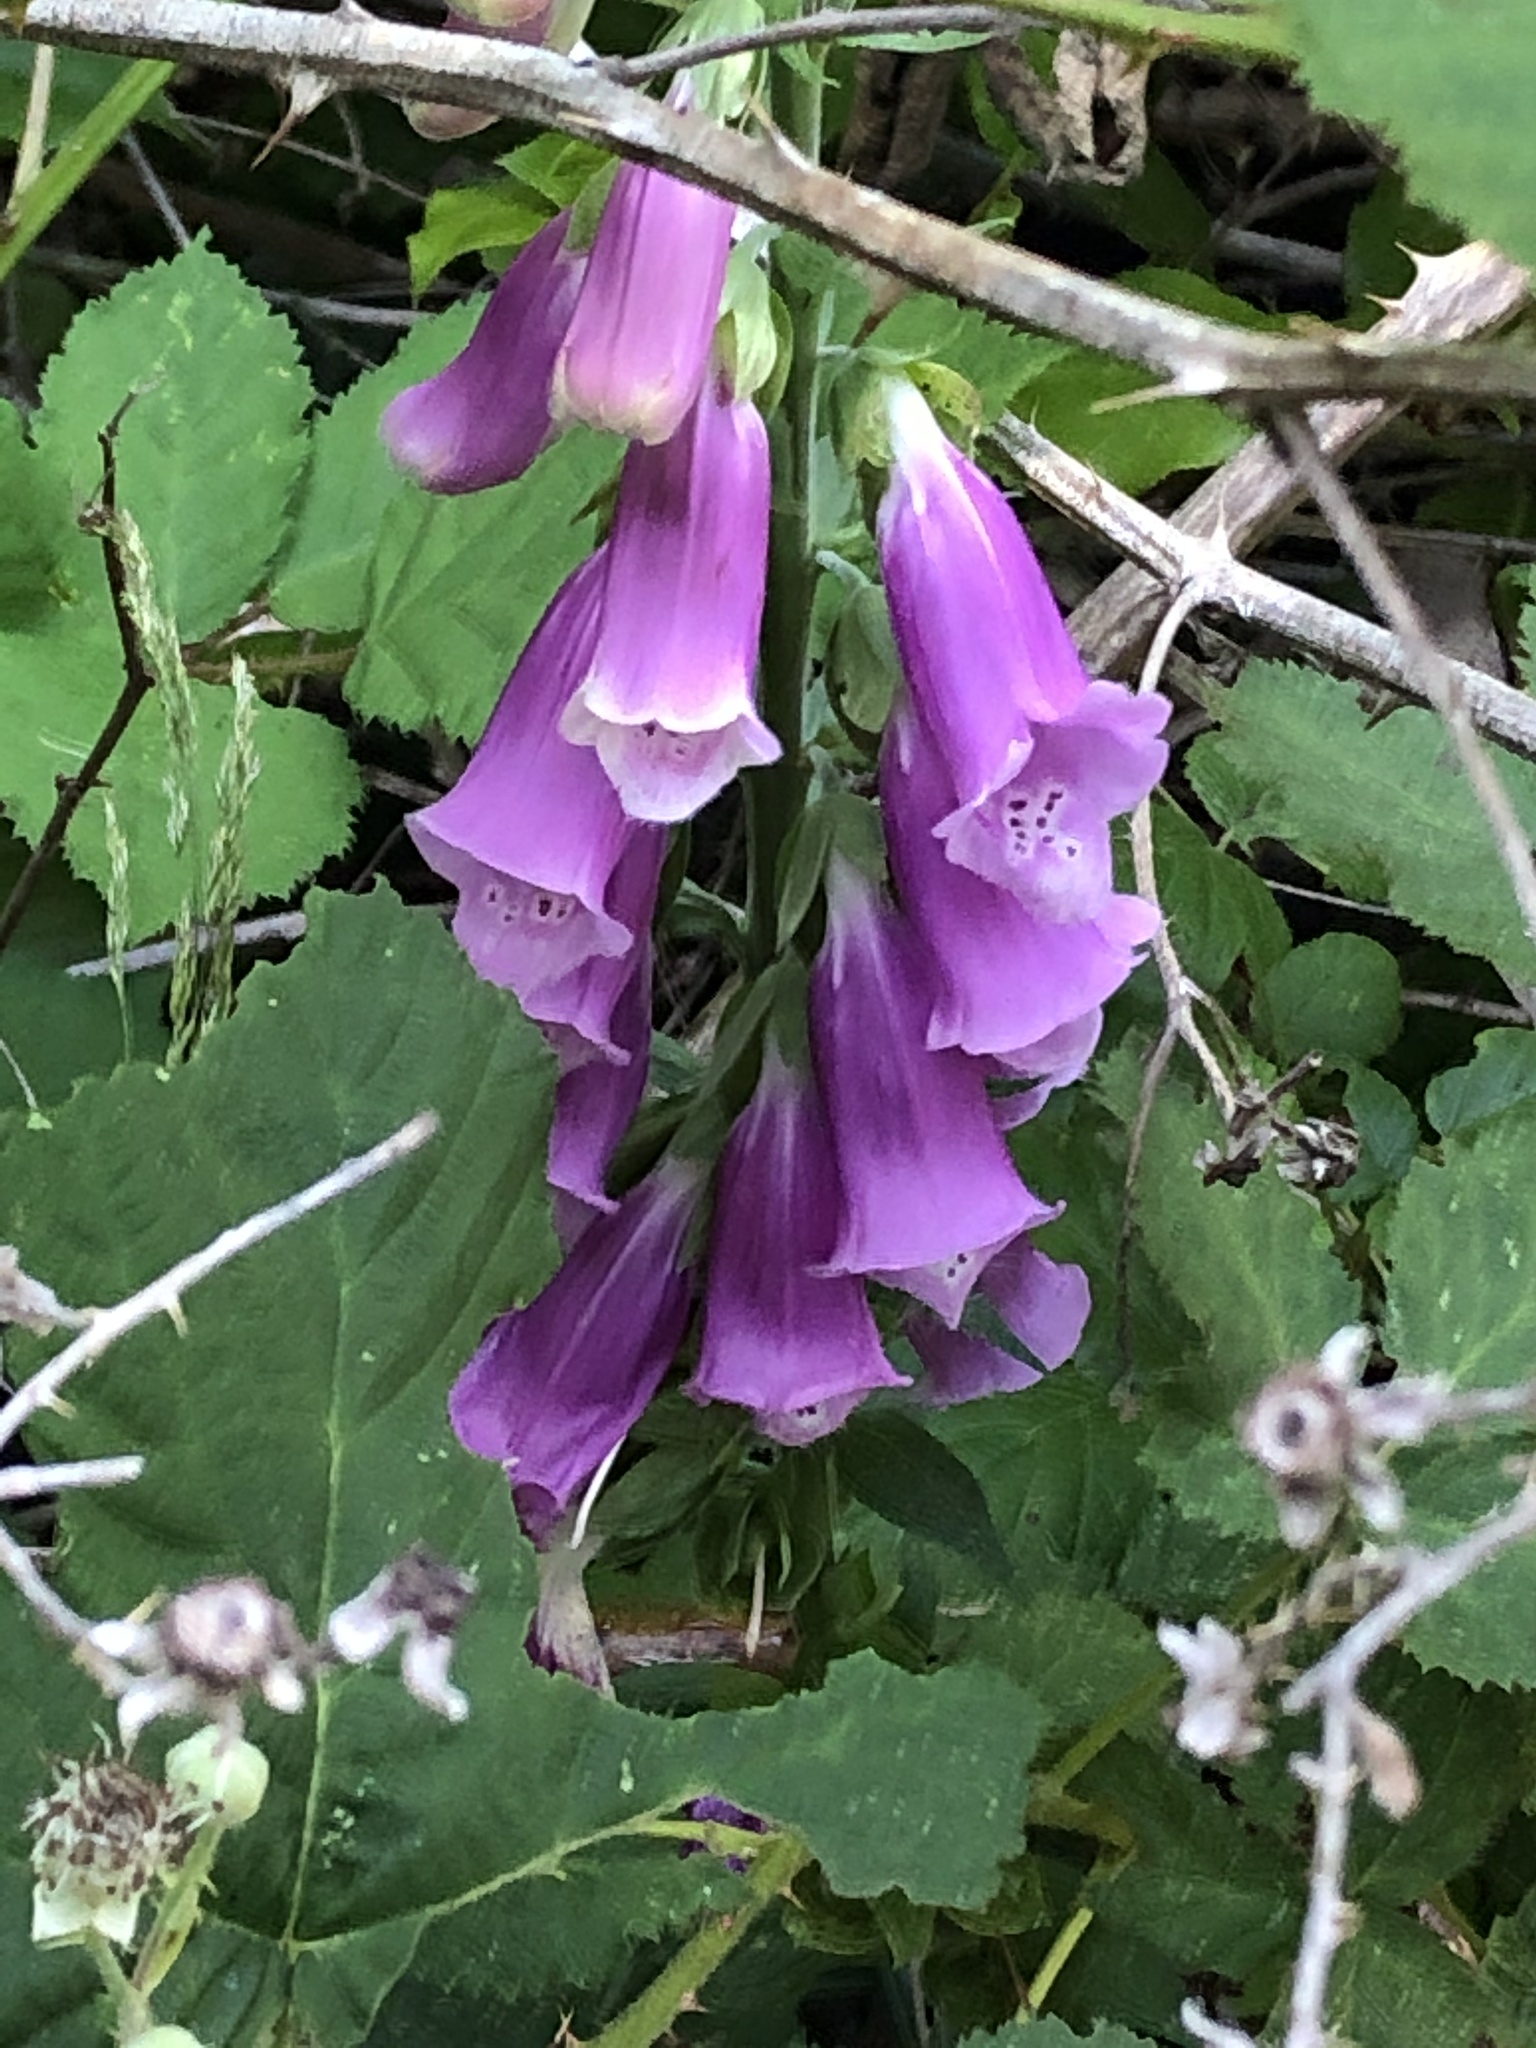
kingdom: Plantae
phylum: Tracheophyta
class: Magnoliopsida
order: Lamiales
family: Plantaginaceae
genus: Digitalis
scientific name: Digitalis purpurea
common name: Foxglove
